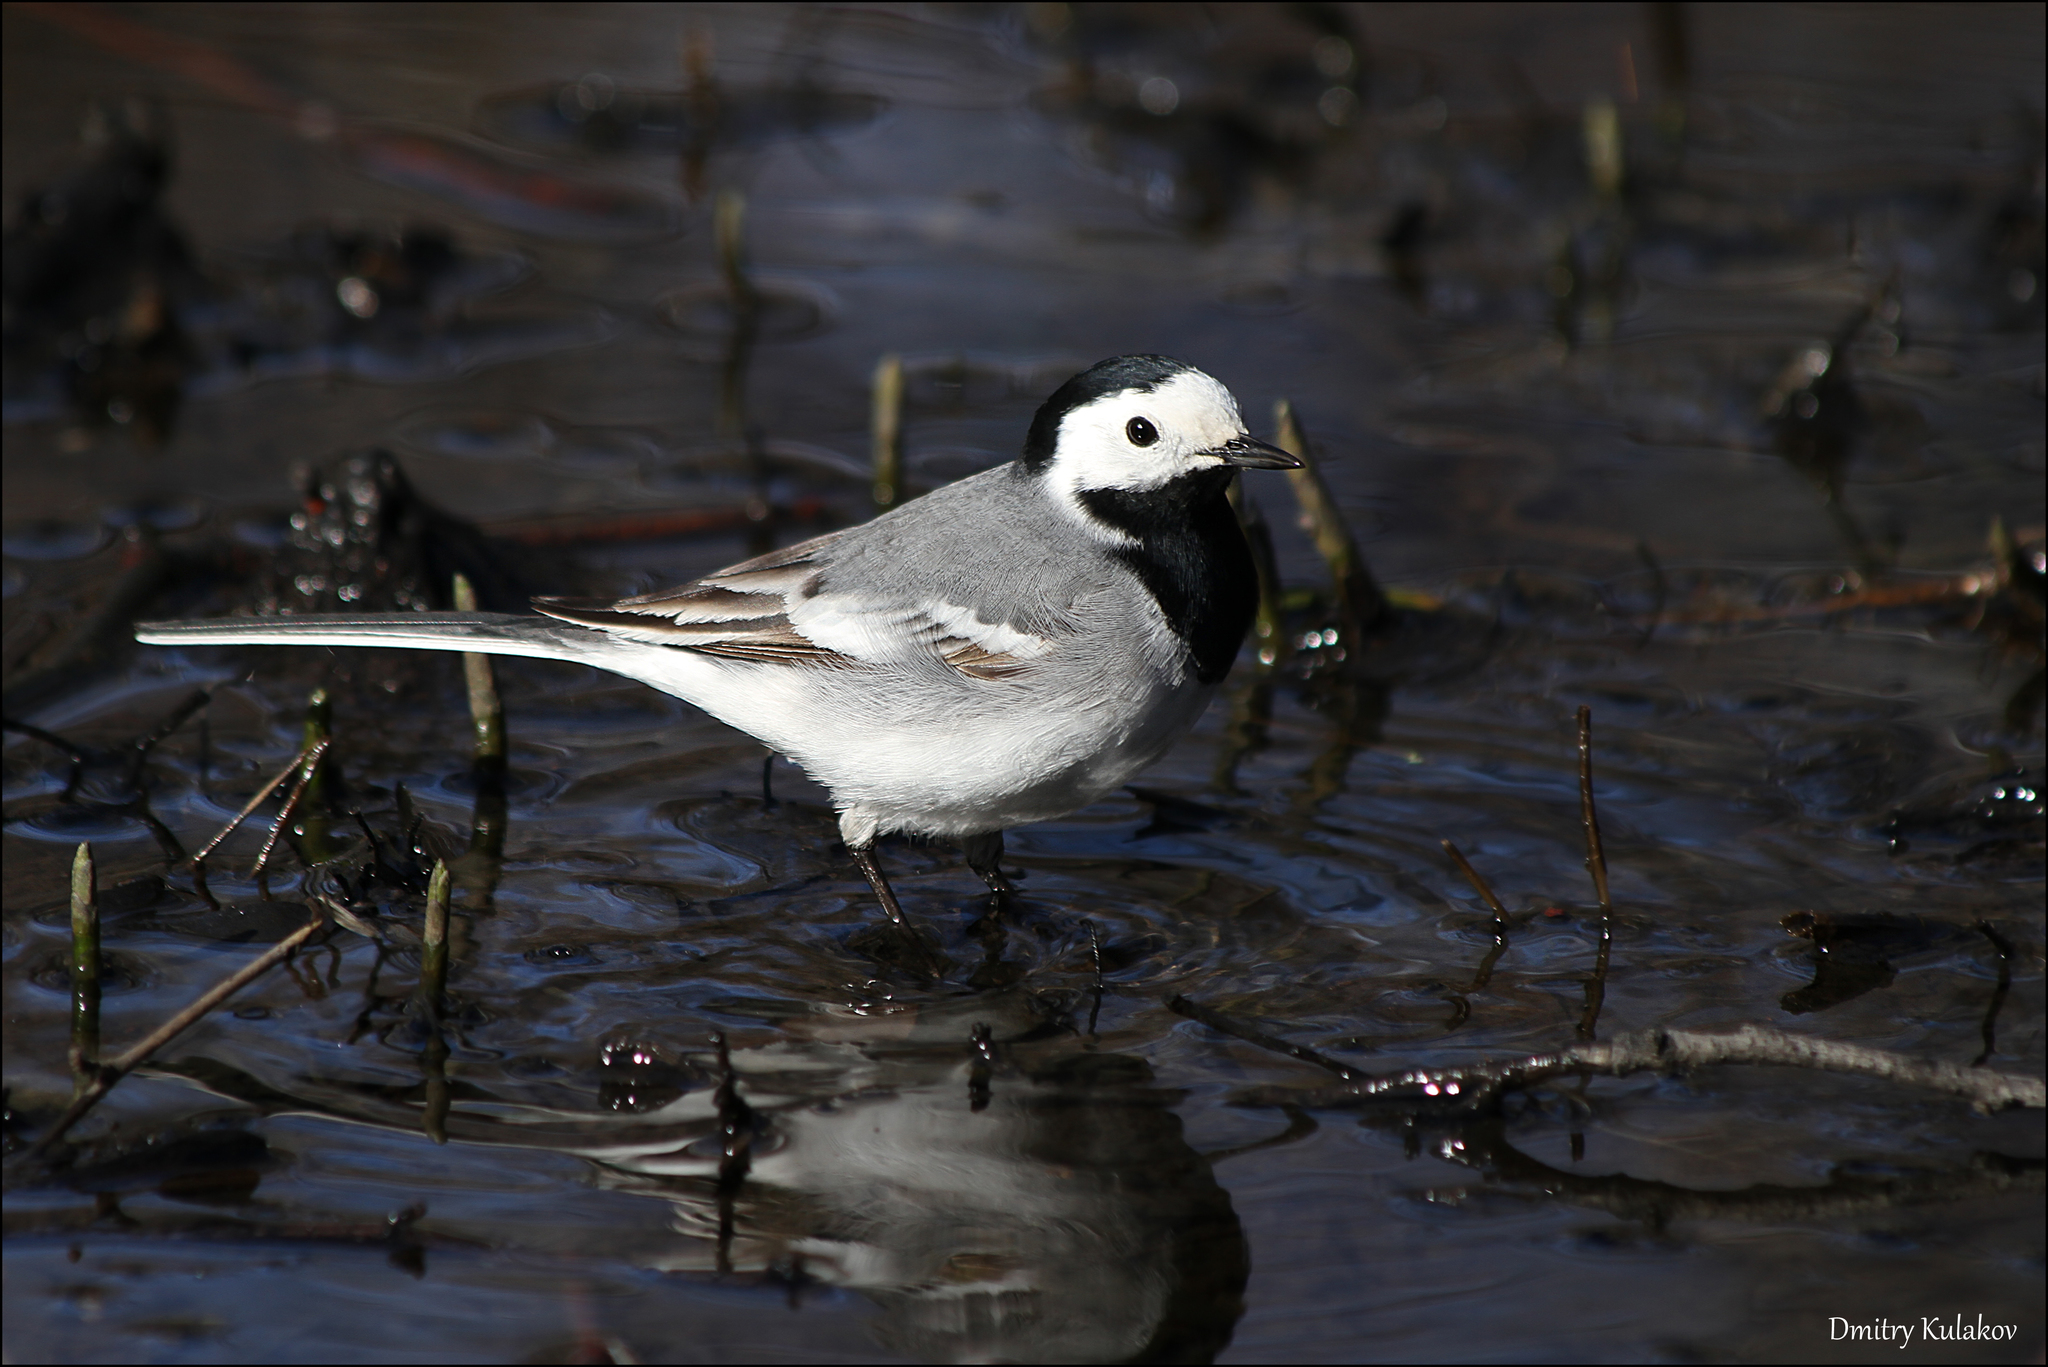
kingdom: Animalia
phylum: Chordata
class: Aves
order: Passeriformes
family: Motacillidae
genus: Motacilla
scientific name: Motacilla alba
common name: White wagtail
